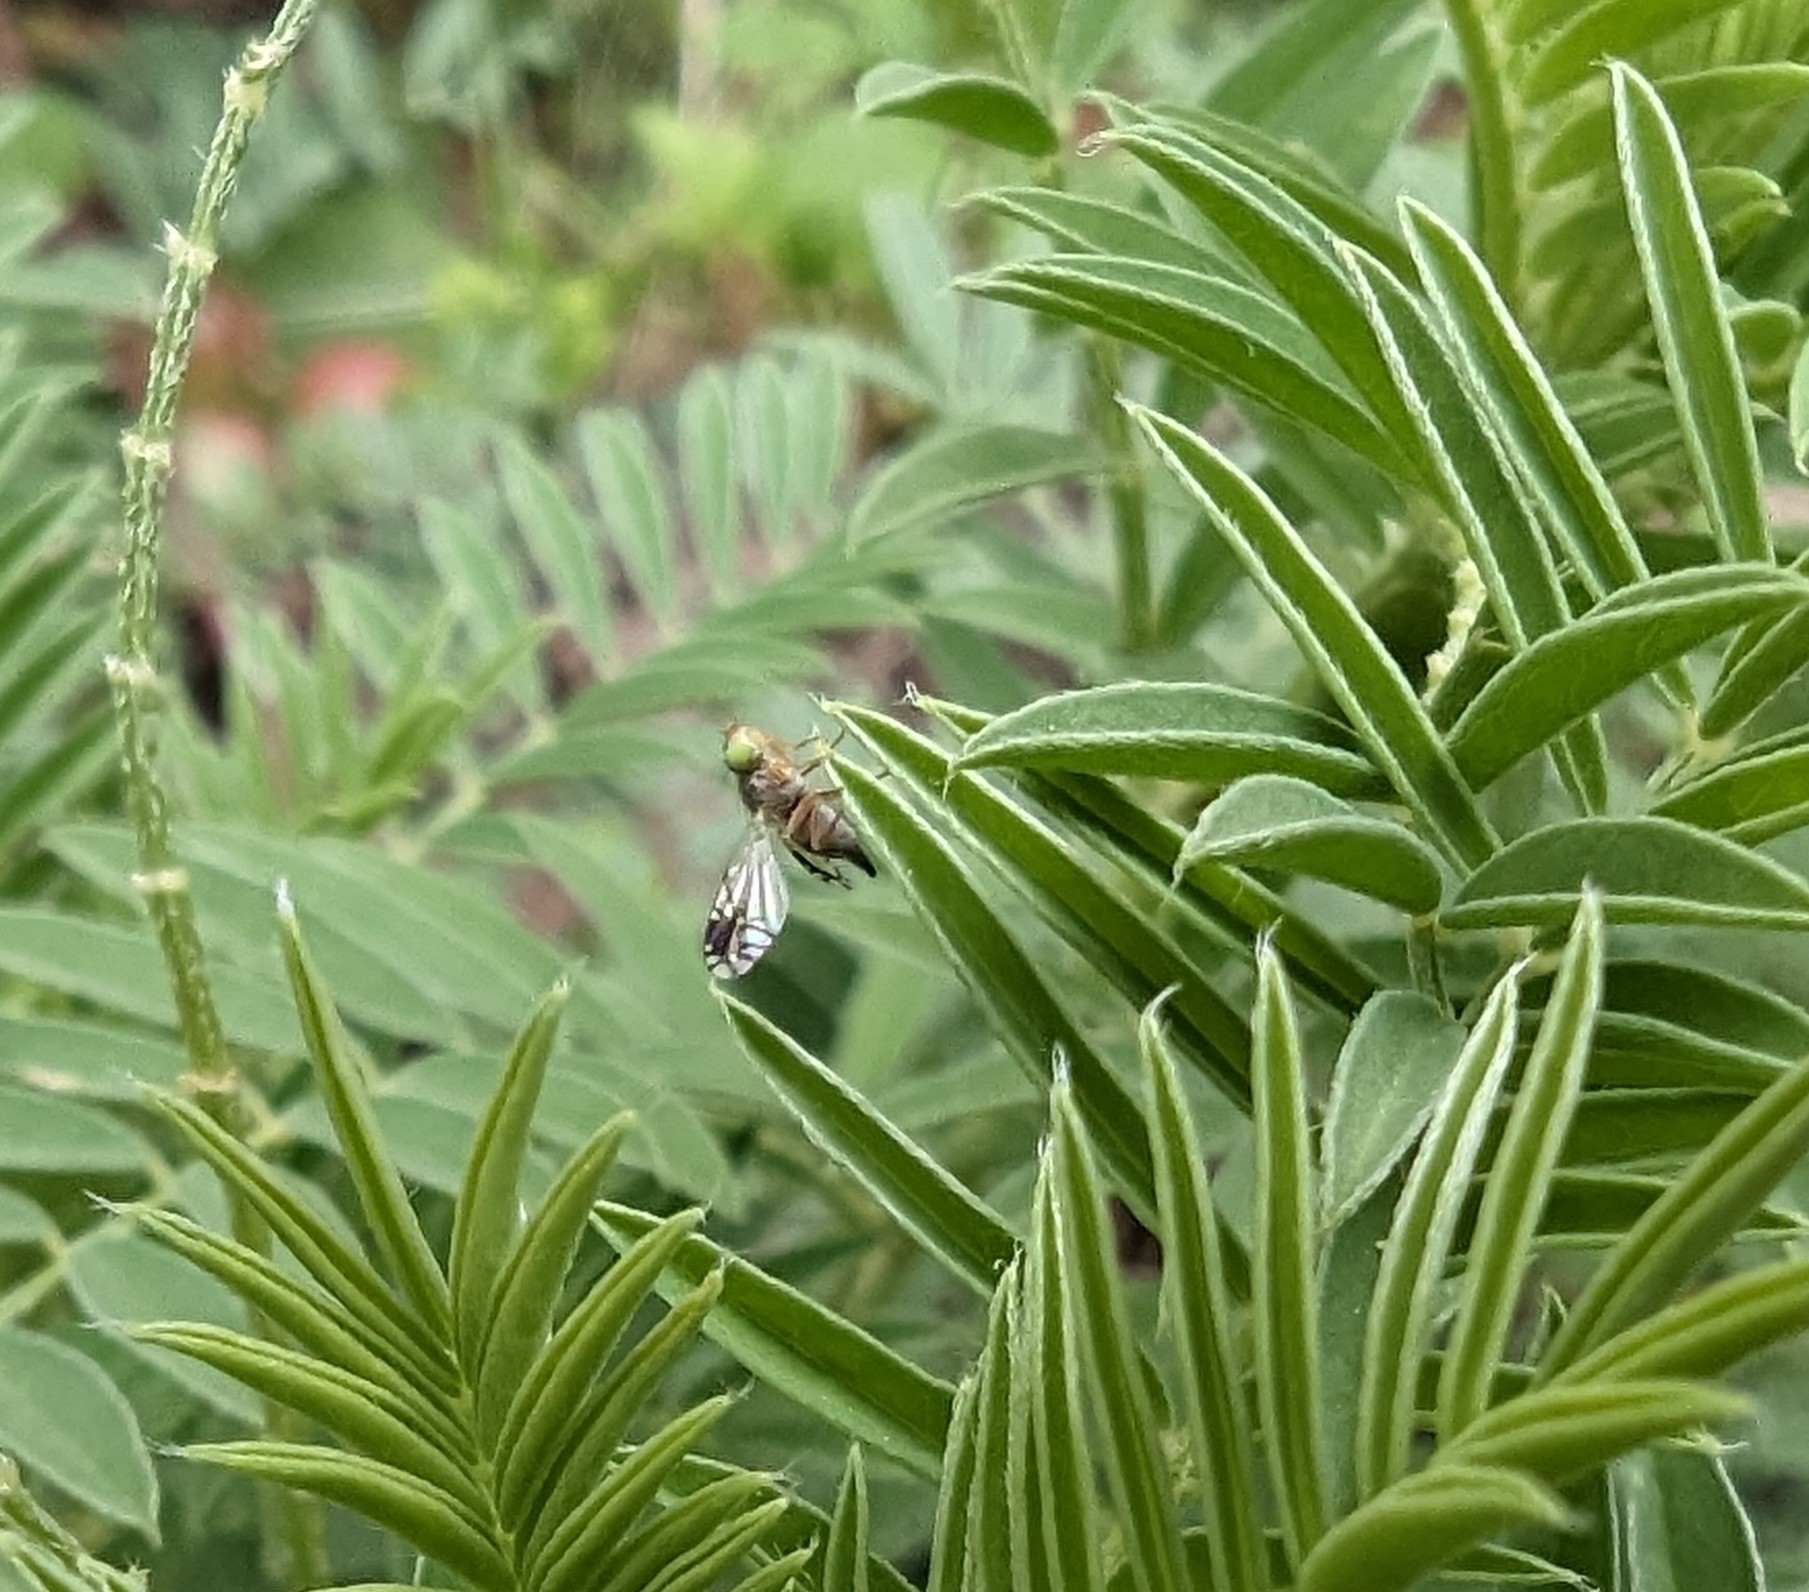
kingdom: Animalia
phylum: Arthropoda
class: Insecta
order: Diptera
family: Tephritidae
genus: Trupanea
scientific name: Trupanea vicina
